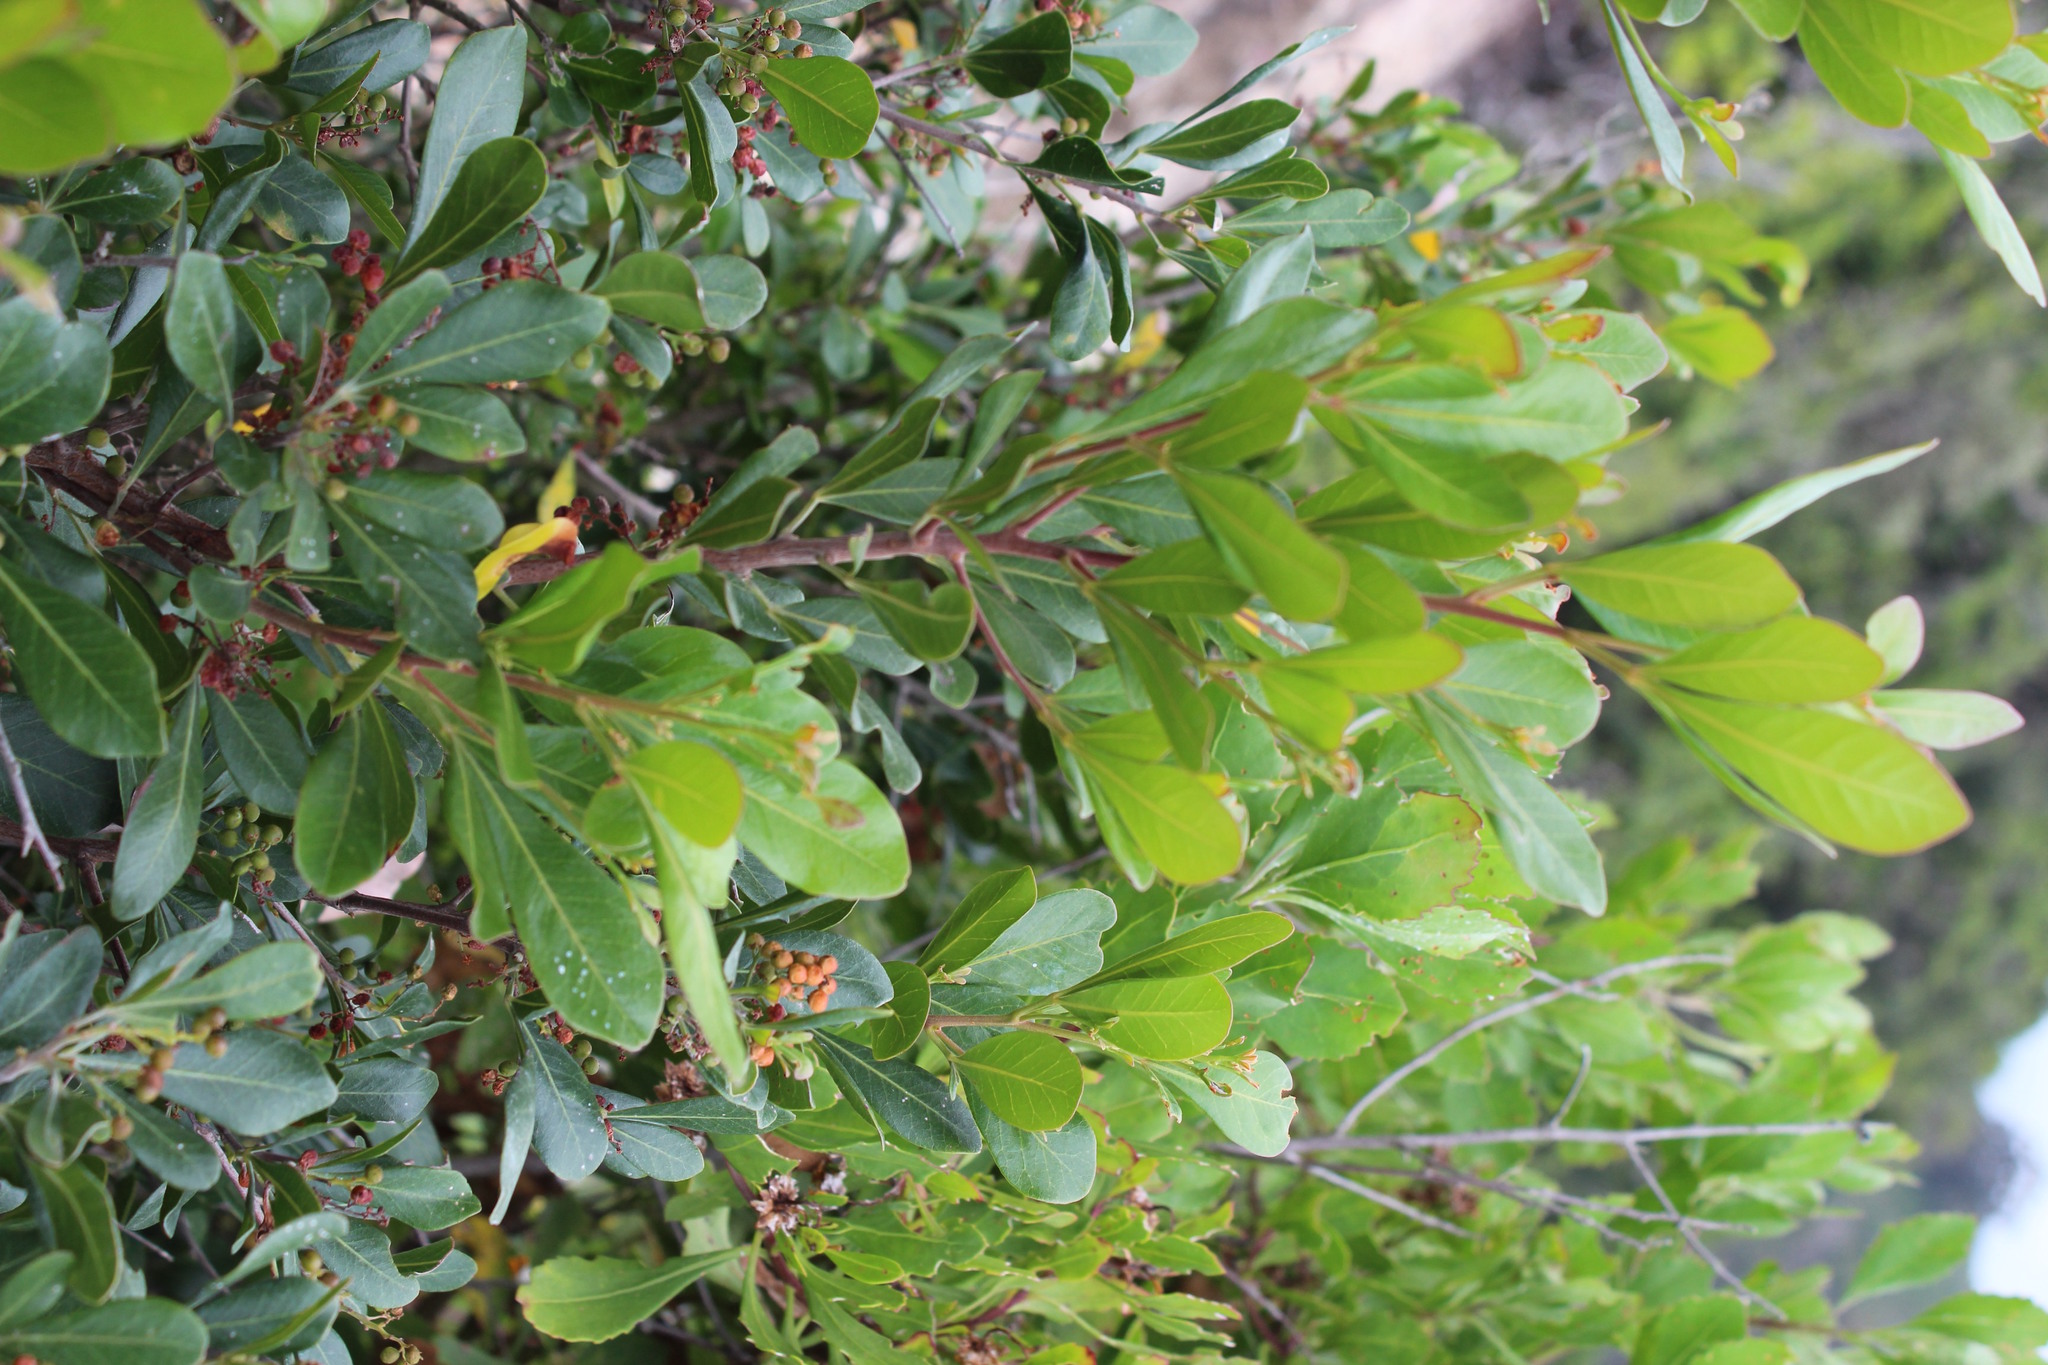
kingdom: Plantae
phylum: Tracheophyta
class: Magnoliopsida
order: Sapindales
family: Anacardiaceae
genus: Searsia
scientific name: Searsia lucida
